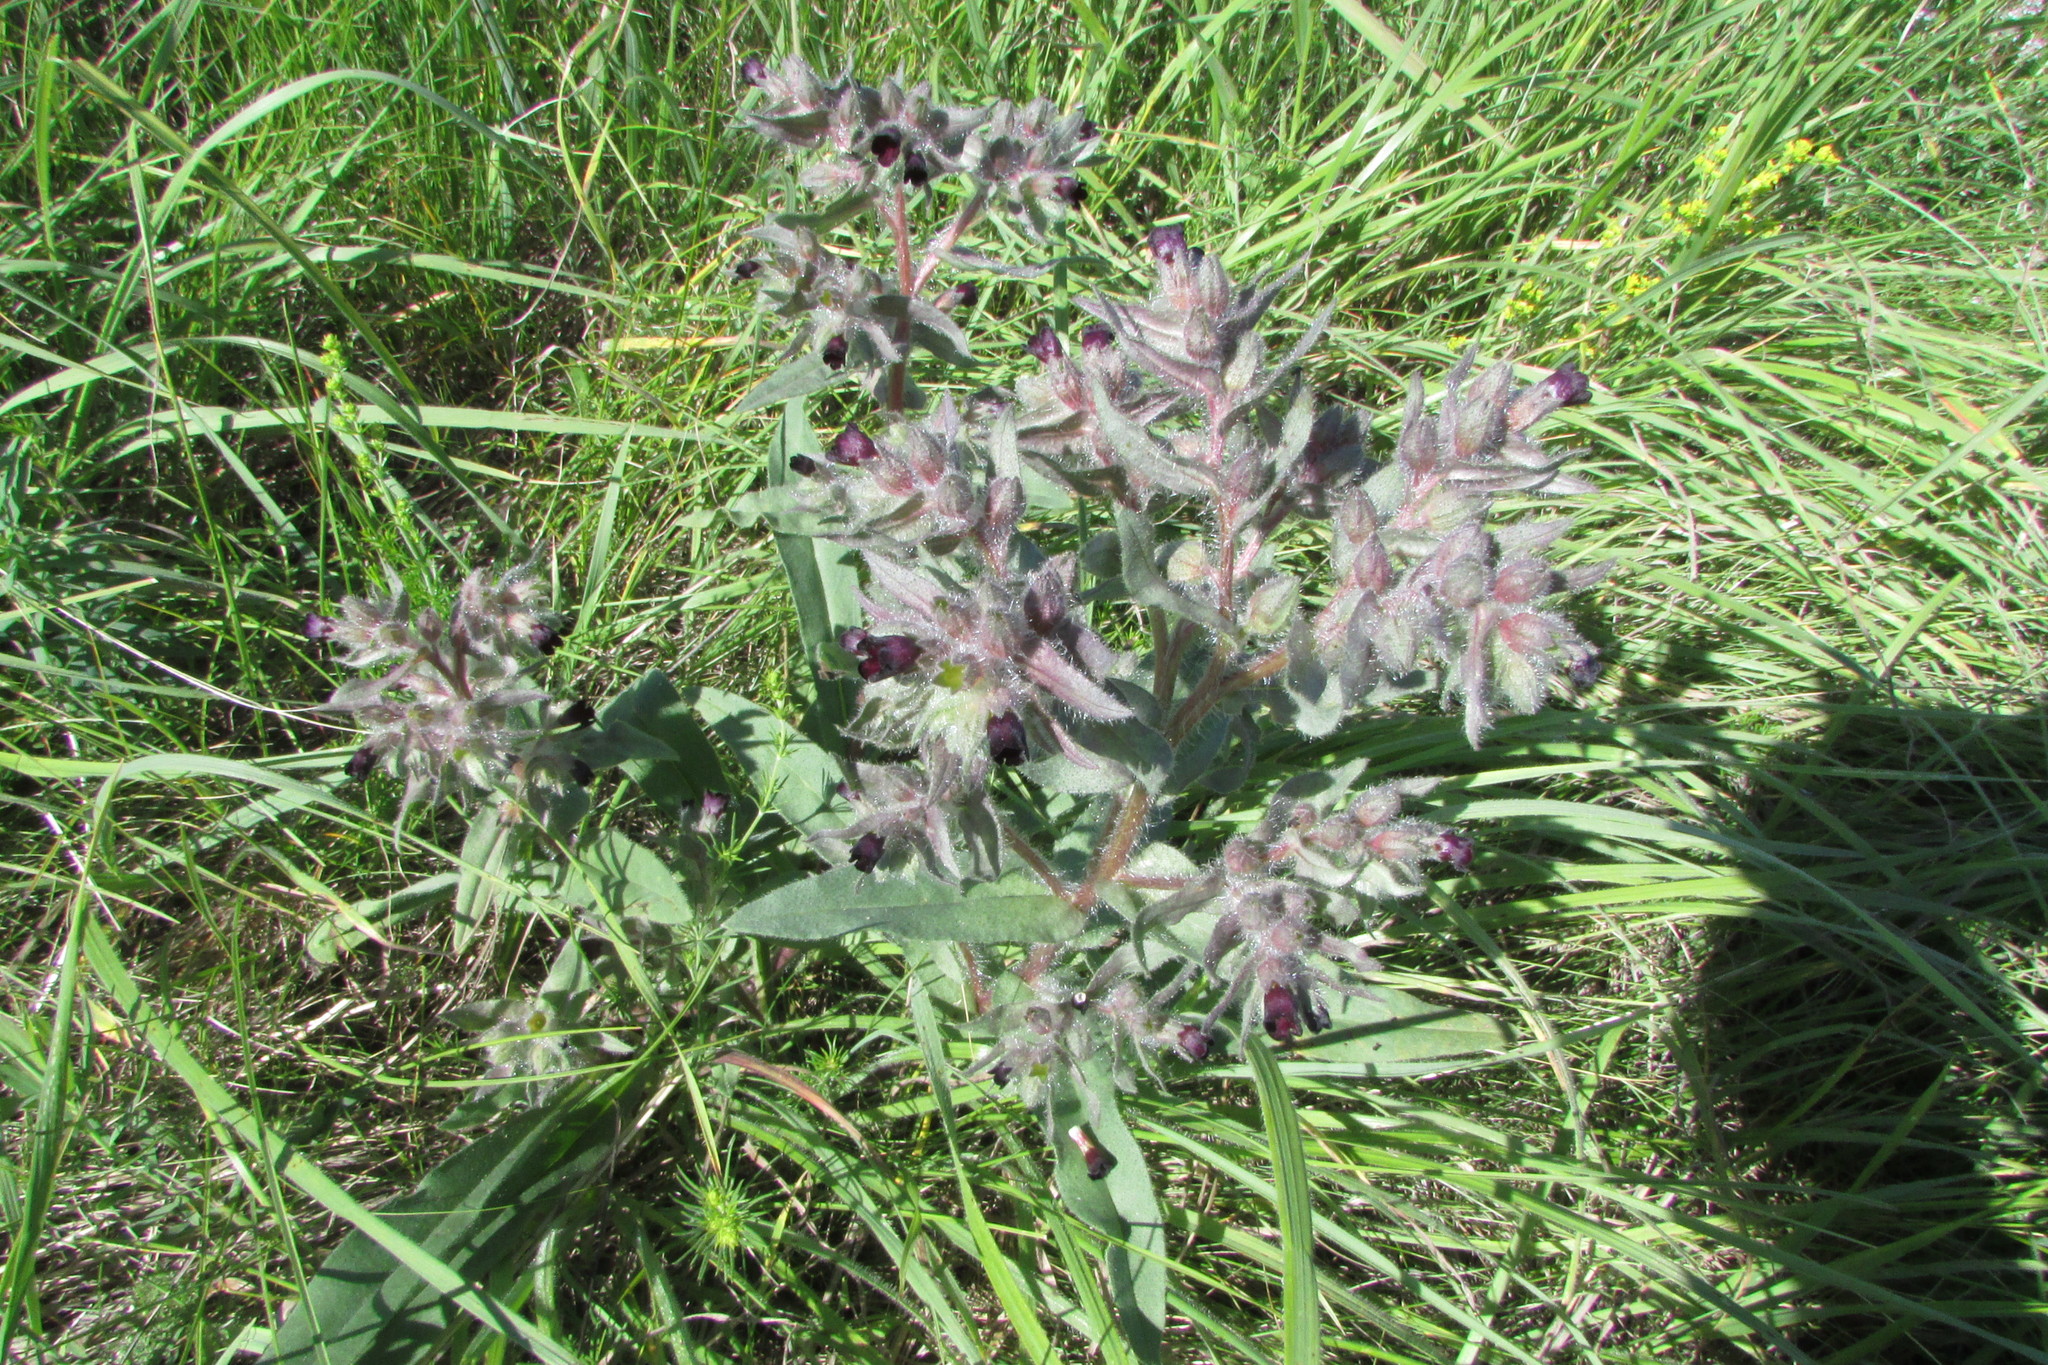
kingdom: Plantae
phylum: Tracheophyta
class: Magnoliopsida
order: Boraginales
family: Boraginaceae
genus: Nonea
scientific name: Nonea pulla
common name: Brown nonea
